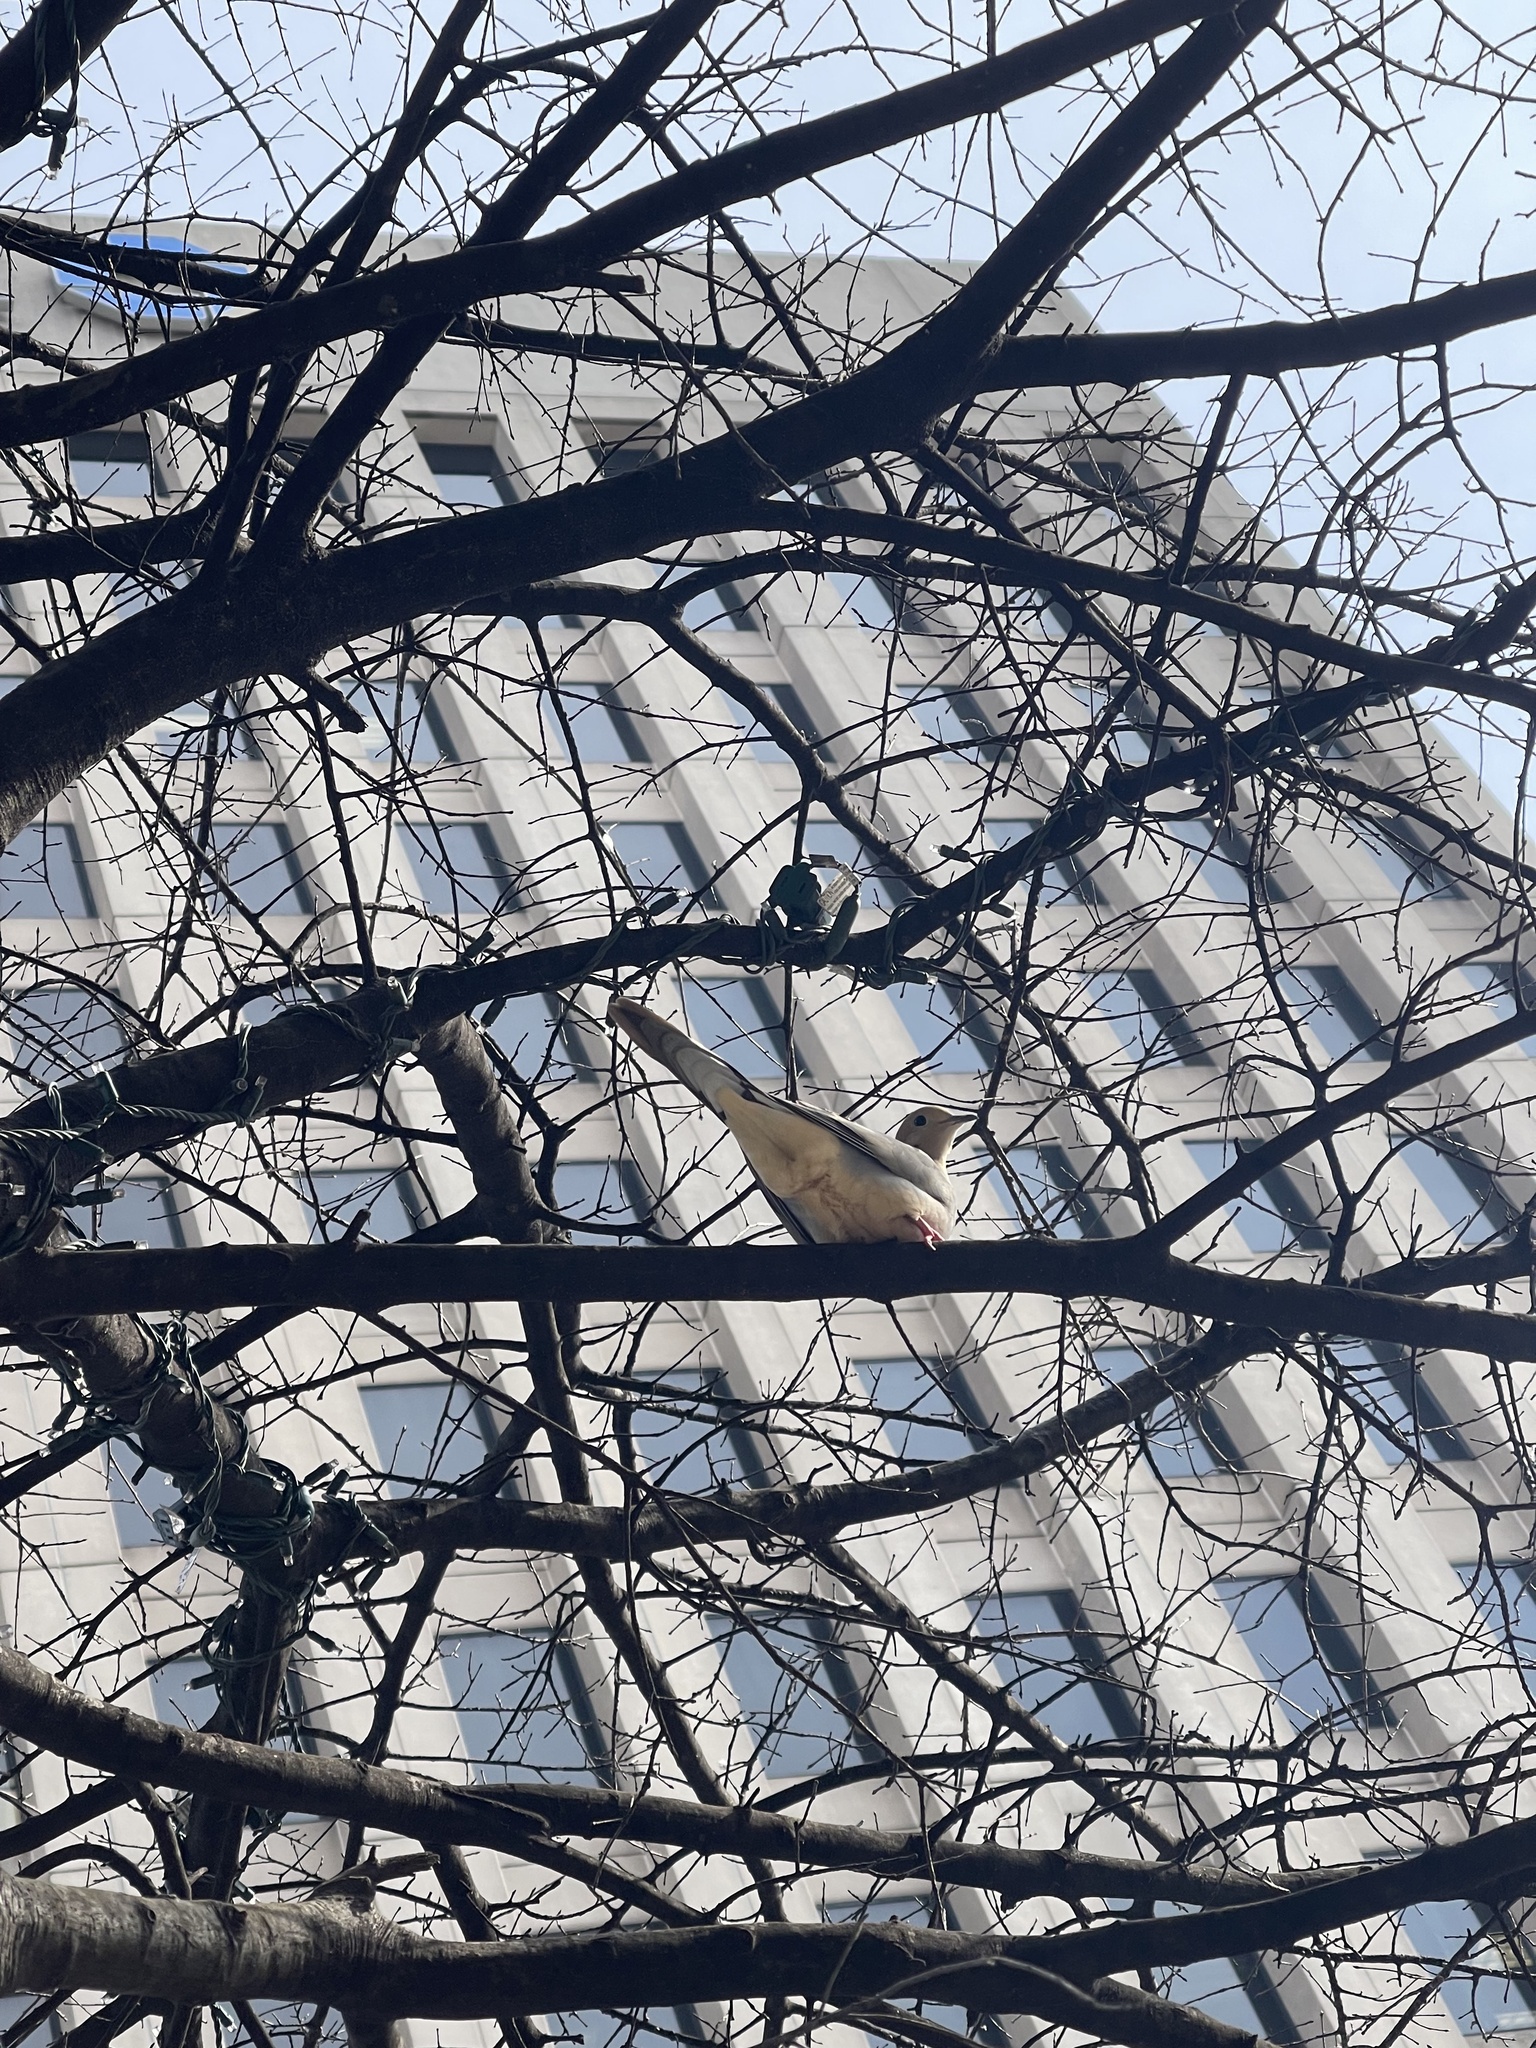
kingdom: Animalia
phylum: Chordata
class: Aves
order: Columbiformes
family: Columbidae
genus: Zenaida
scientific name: Zenaida macroura
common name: Mourning dove
